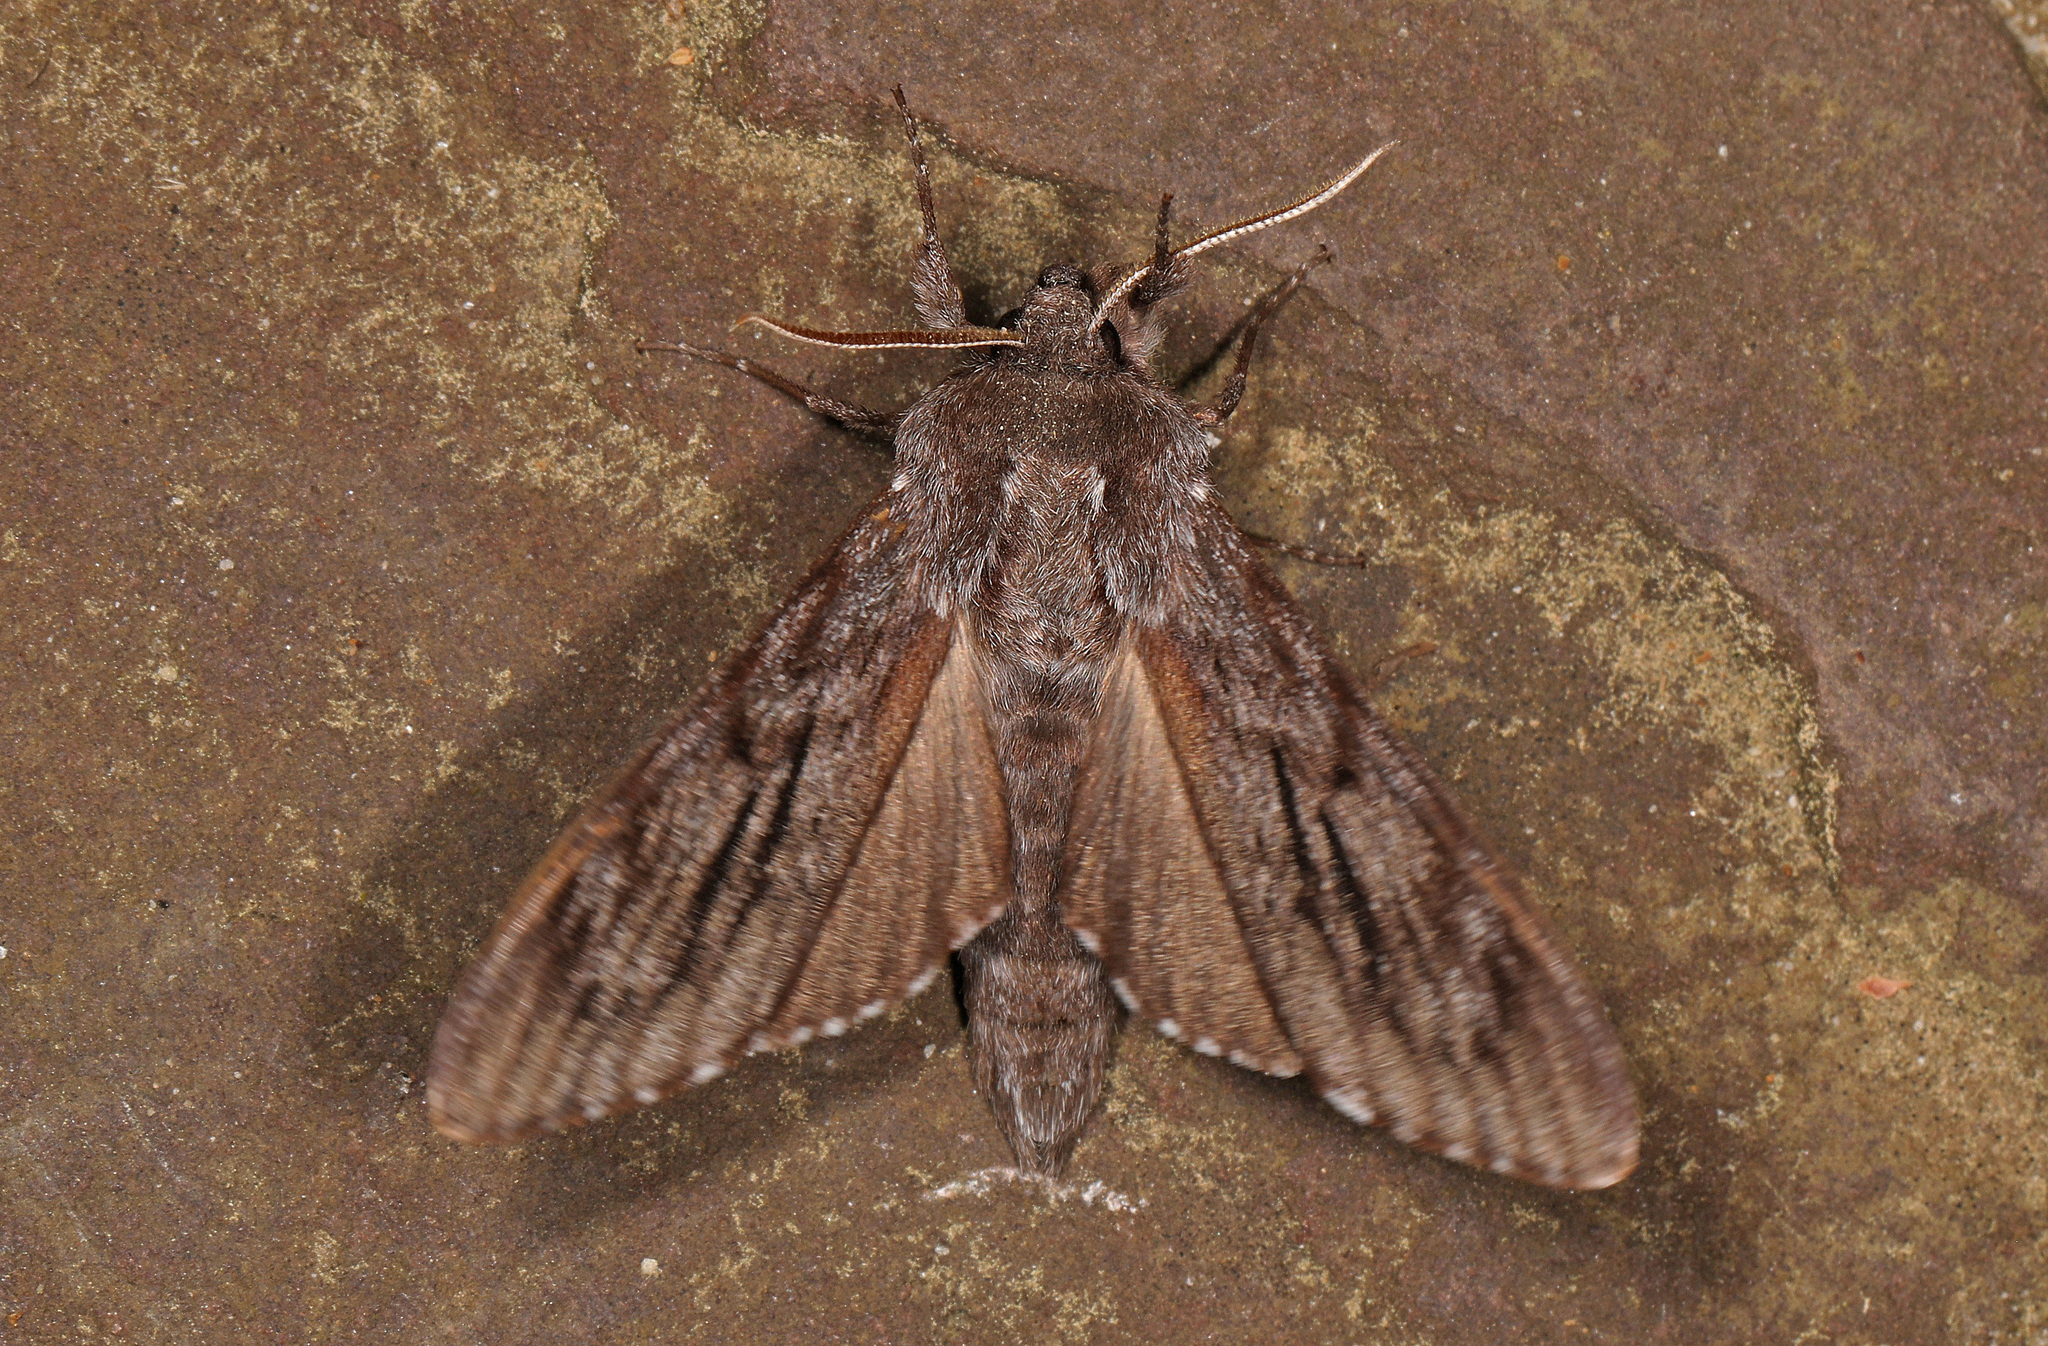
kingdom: Animalia
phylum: Arthropoda
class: Insecta
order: Lepidoptera
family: Sphingidae
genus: Lapara
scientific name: Lapara coniferarum
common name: Southern pine sphinx
